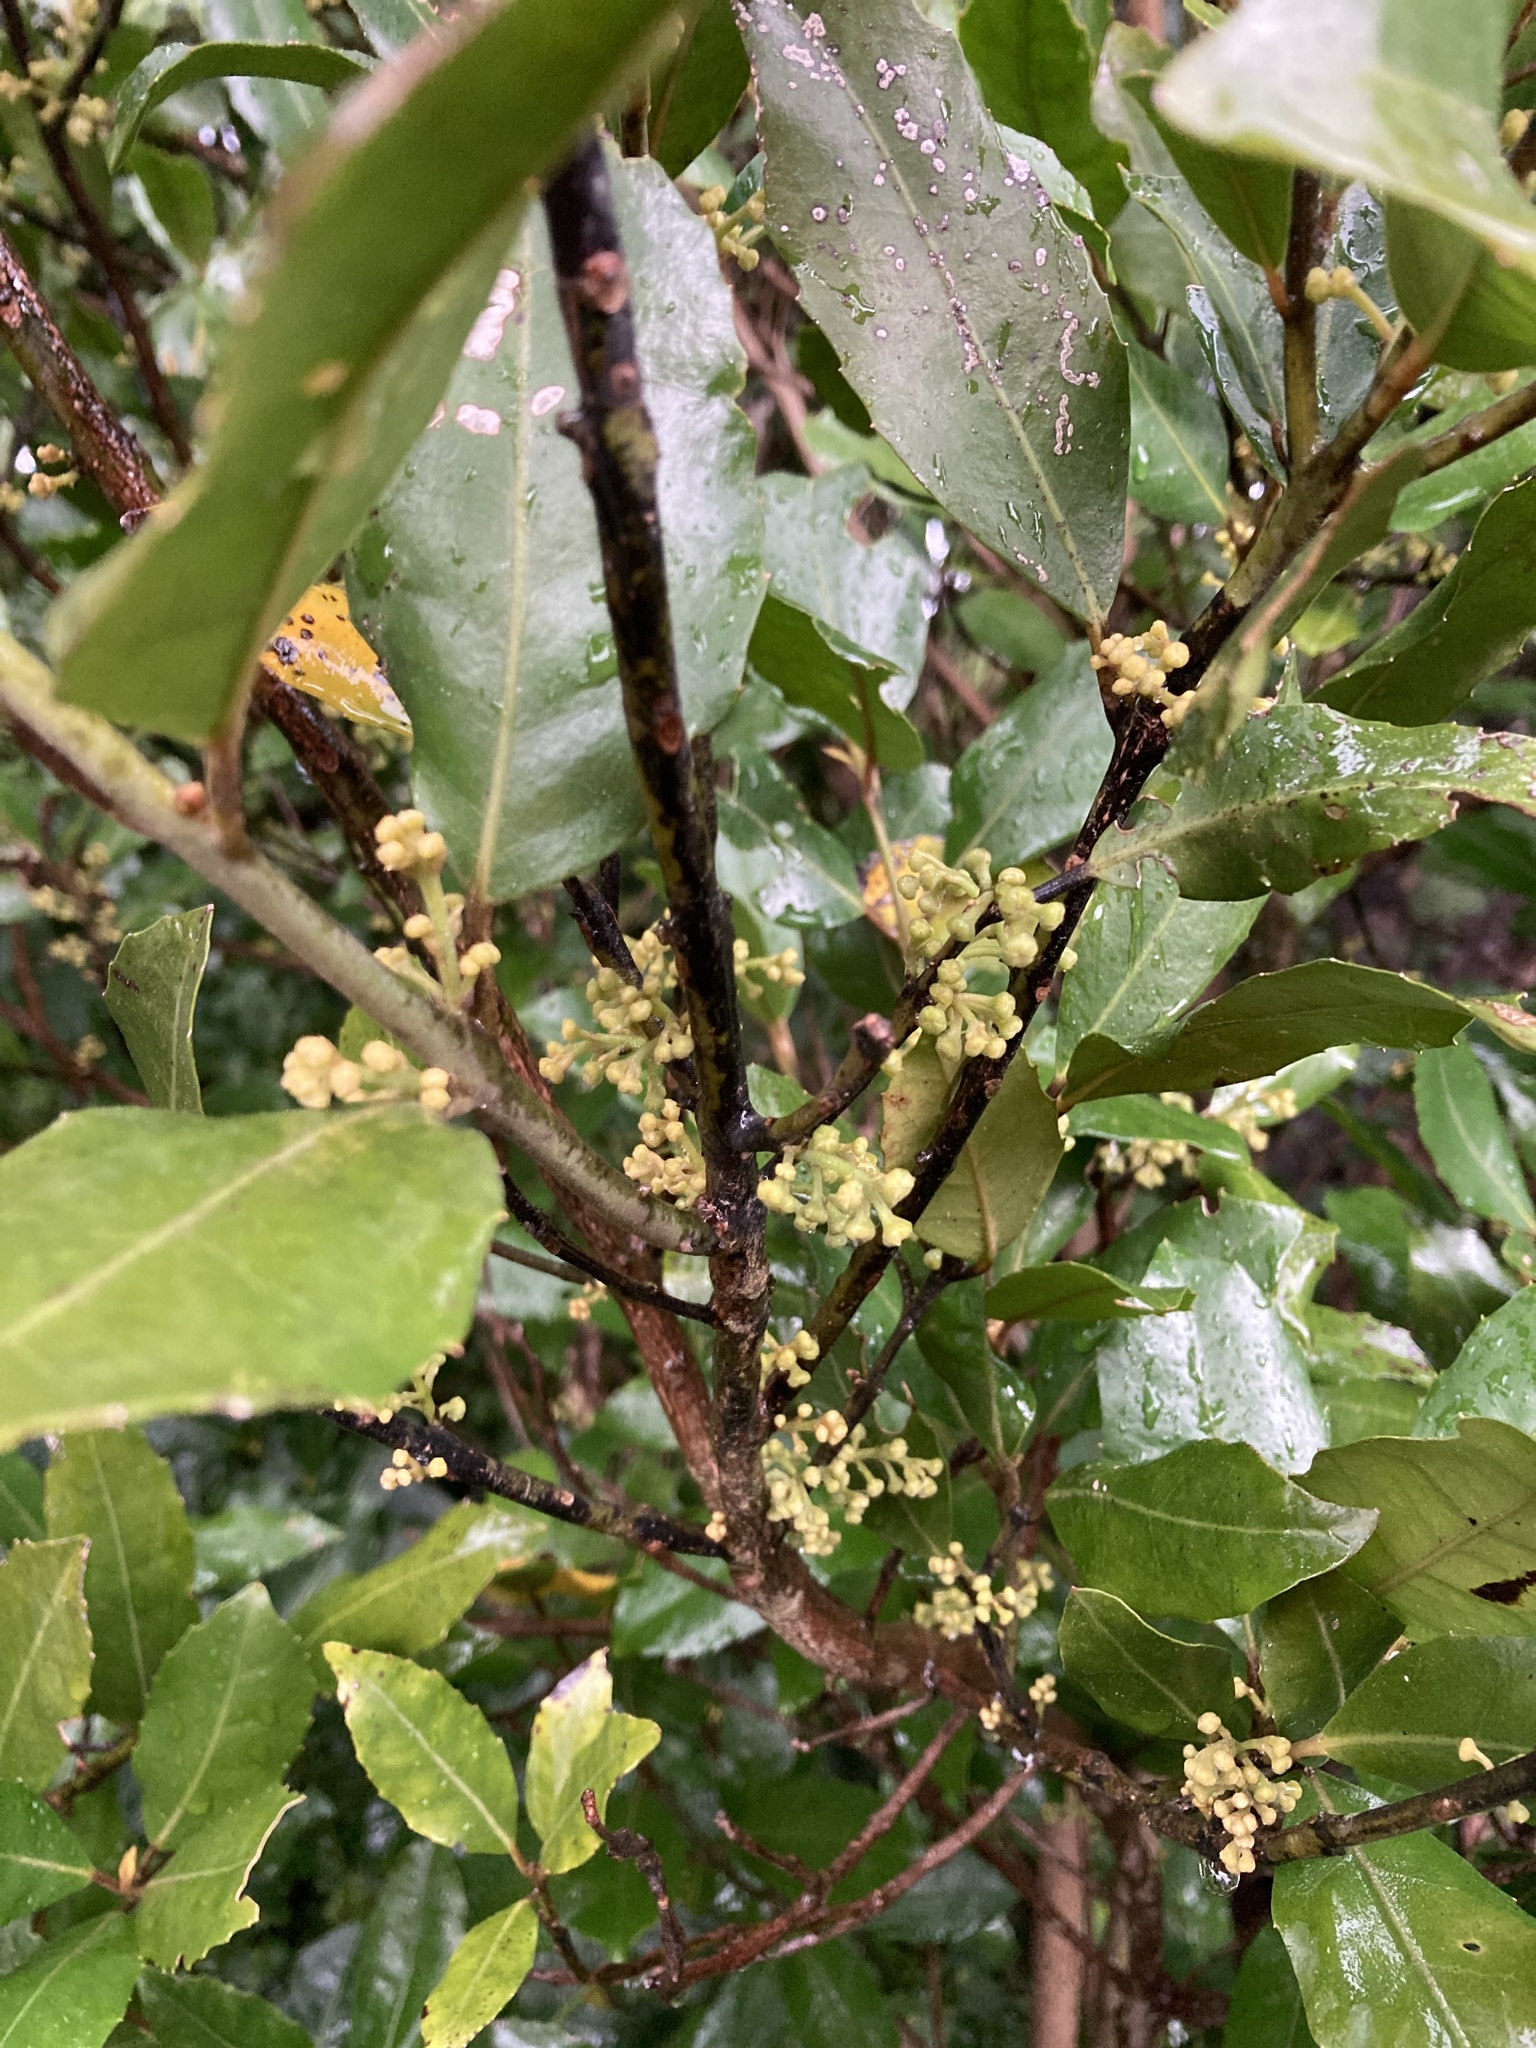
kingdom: Plantae
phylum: Tracheophyta
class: Magnoliopsida
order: Laurales
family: Monimiaceae
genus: Hedycarya
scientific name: Hedycarya arborea
